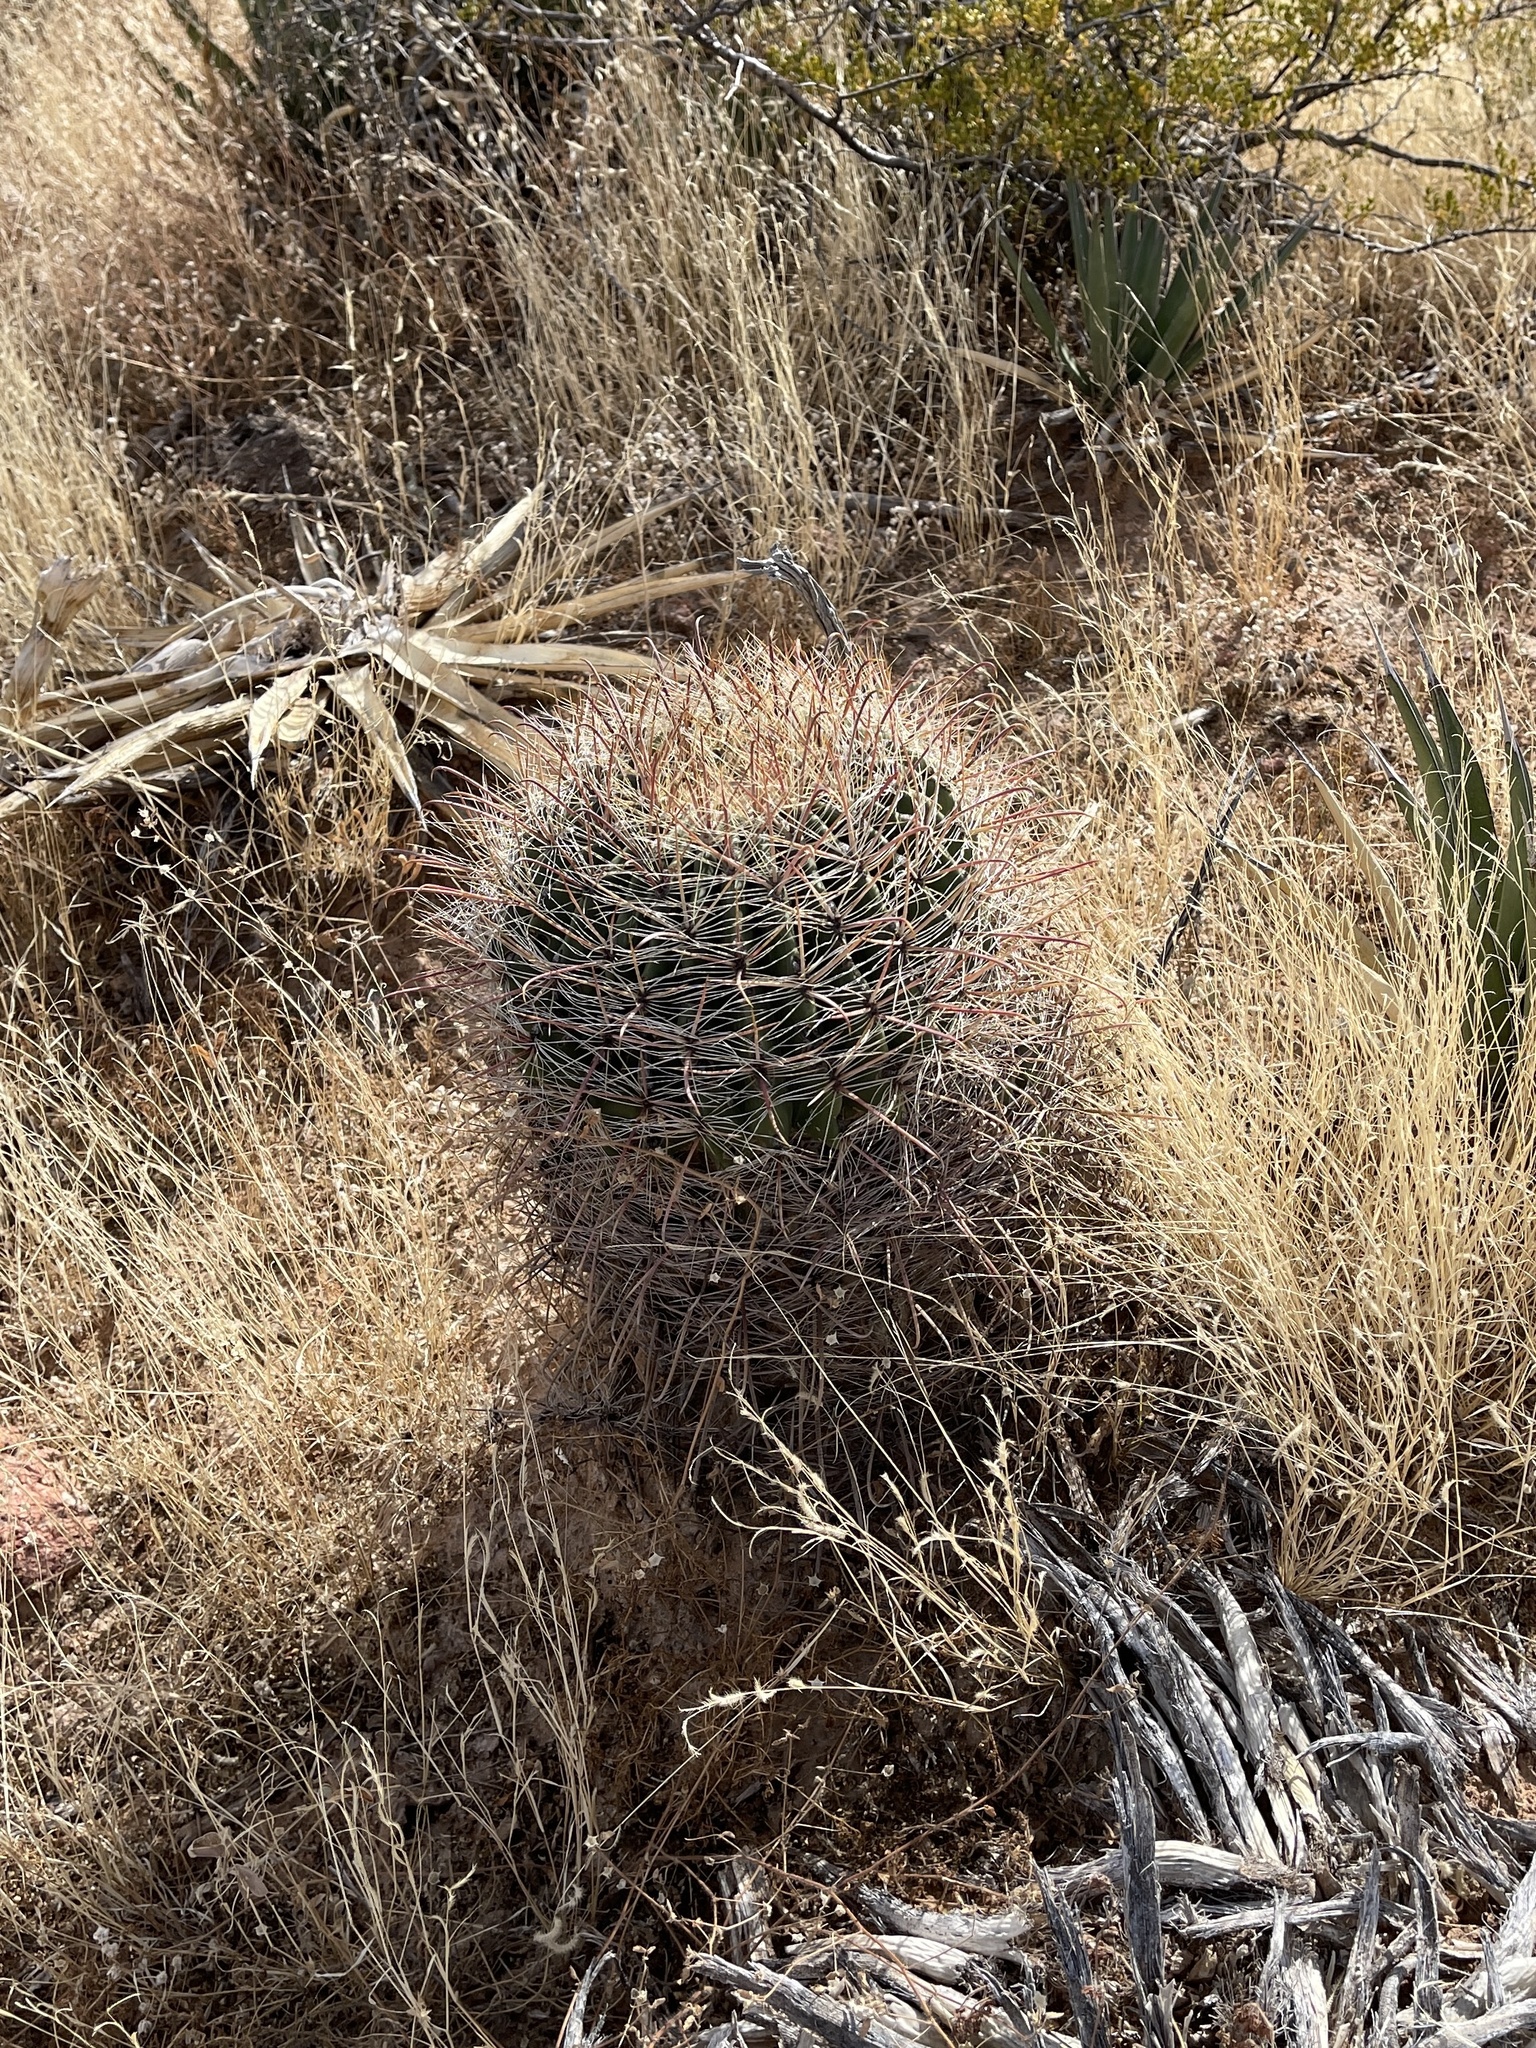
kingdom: Plantae
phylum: Tracheophyta
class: Magnoliopsida
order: Caryophyllales
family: Cactaceae
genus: Ferocactus
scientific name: Ferocactus wislizeni
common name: Candy barrel cactus
